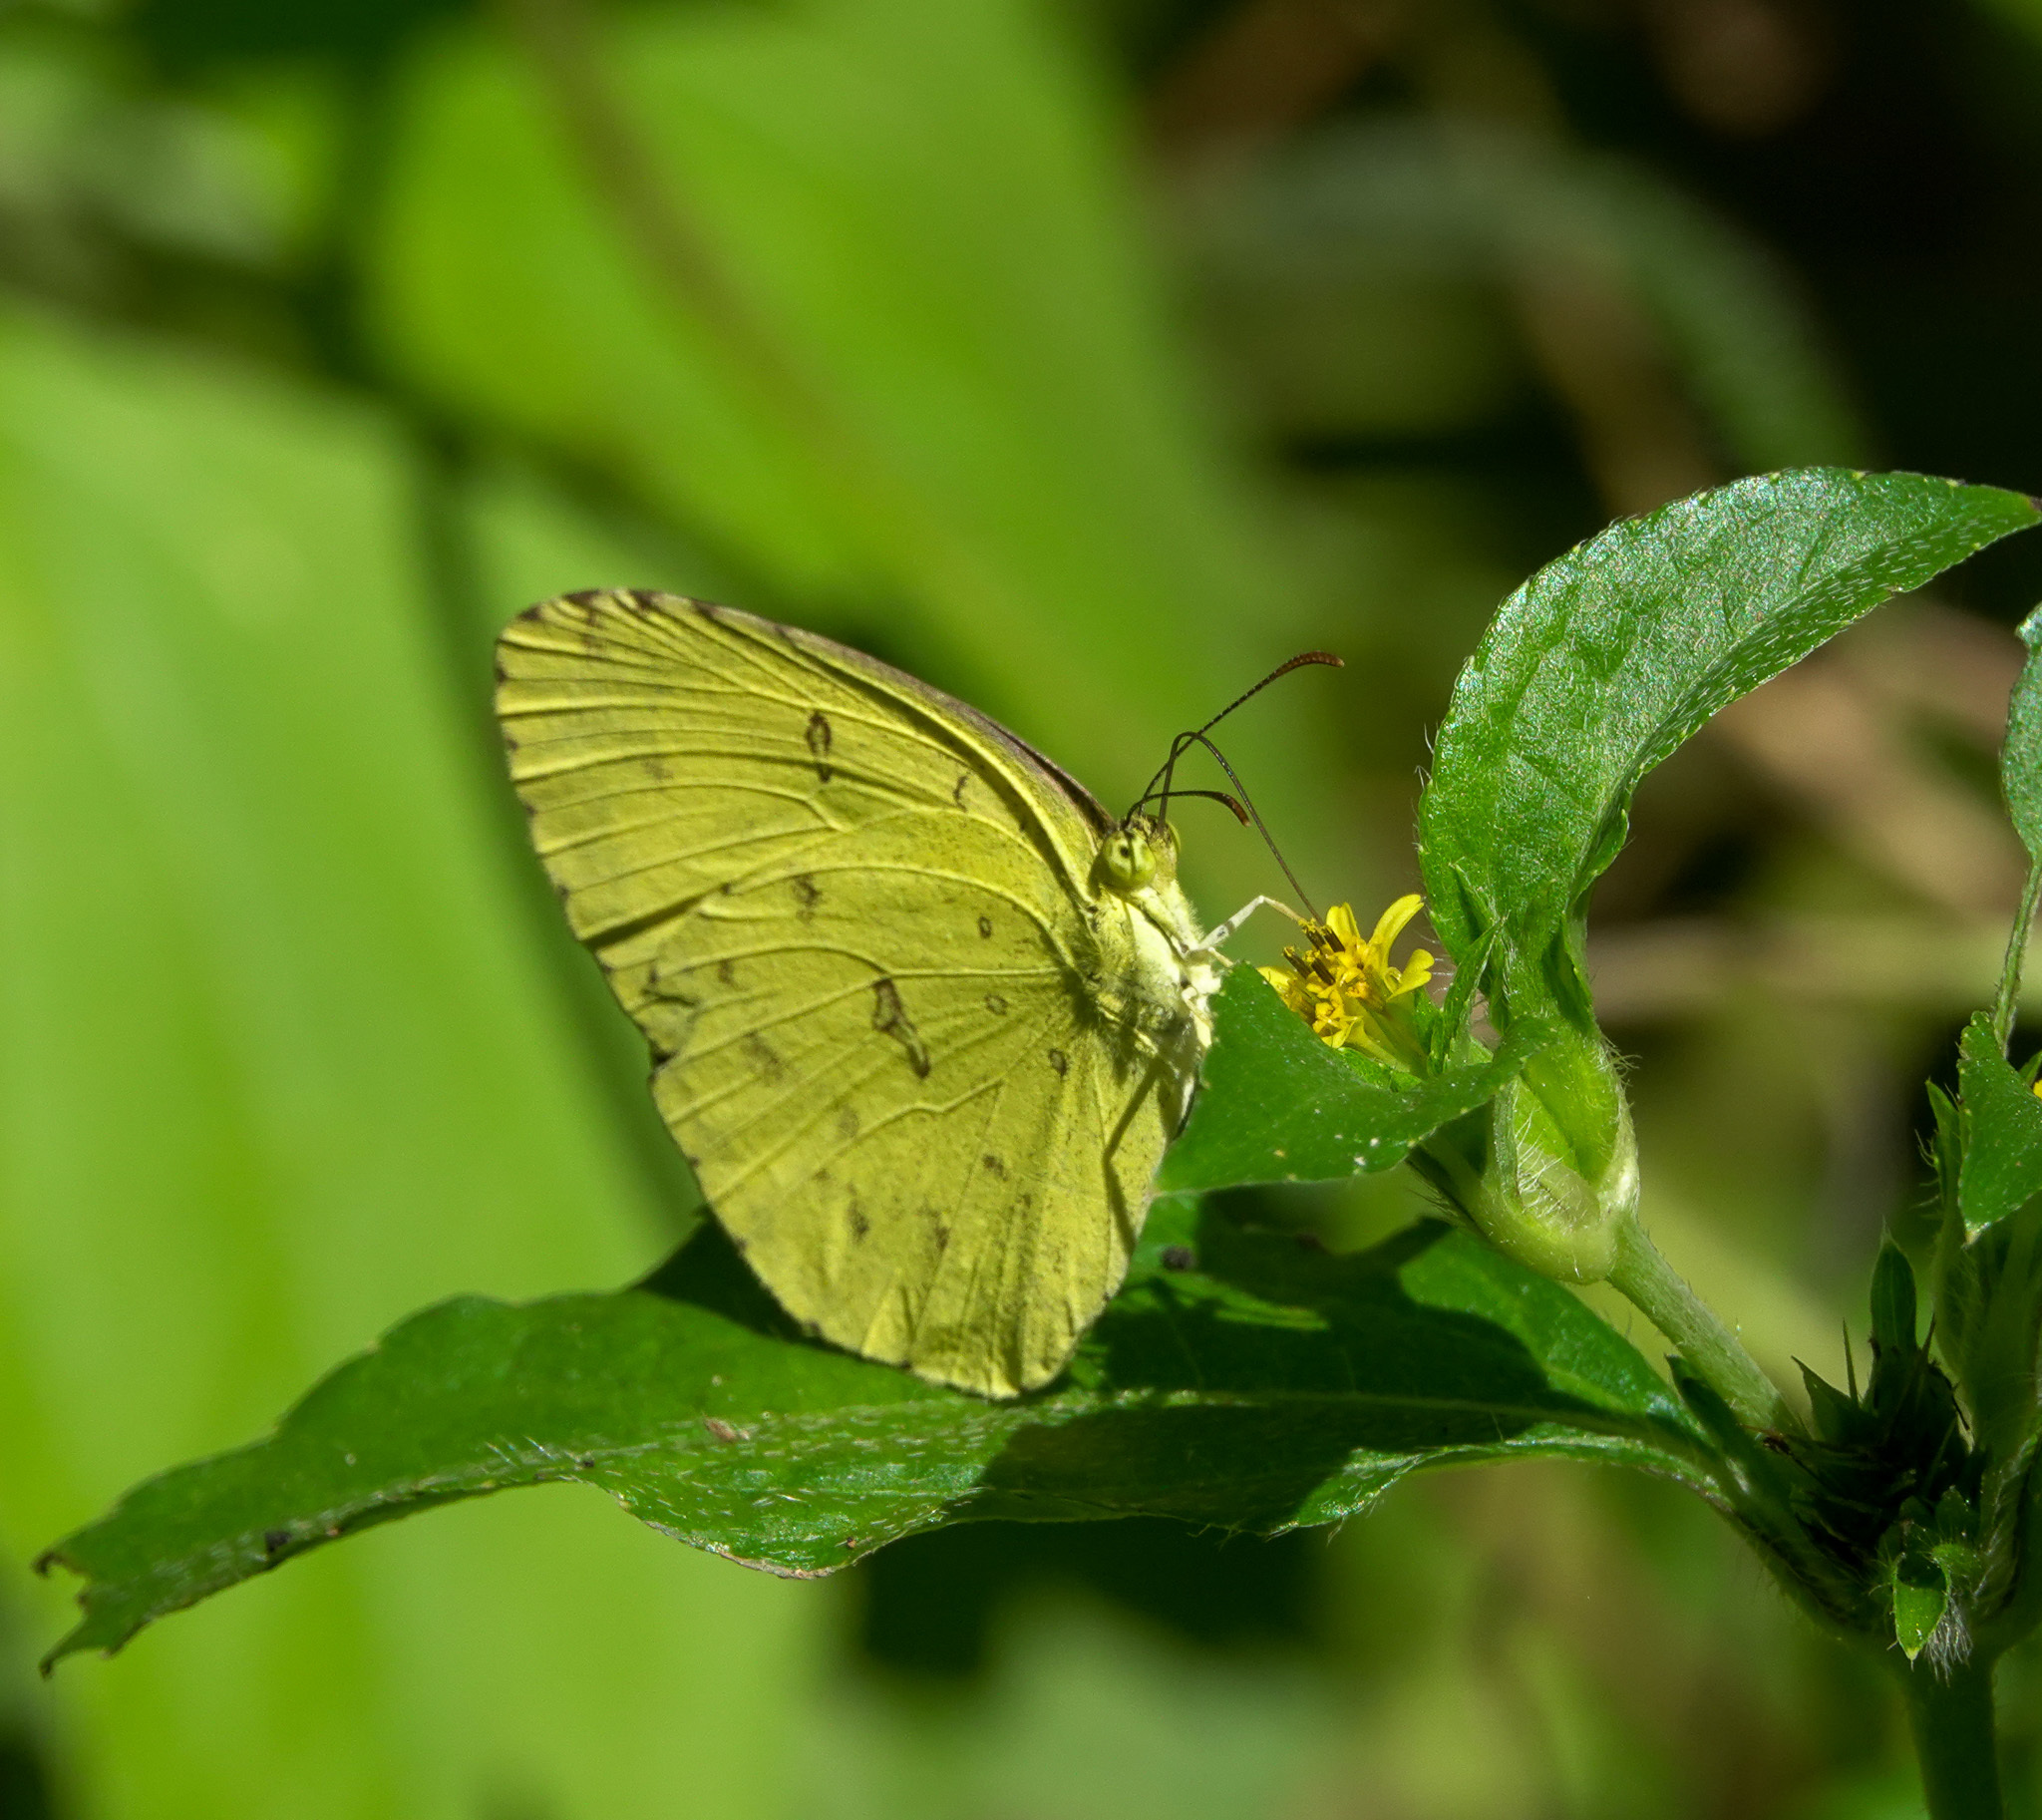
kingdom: Animalia
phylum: Arthropoda
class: Insecta
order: Lepidoptera
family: Pieridae
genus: Eurema
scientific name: Eurema hecabe
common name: Pale grass yellow
